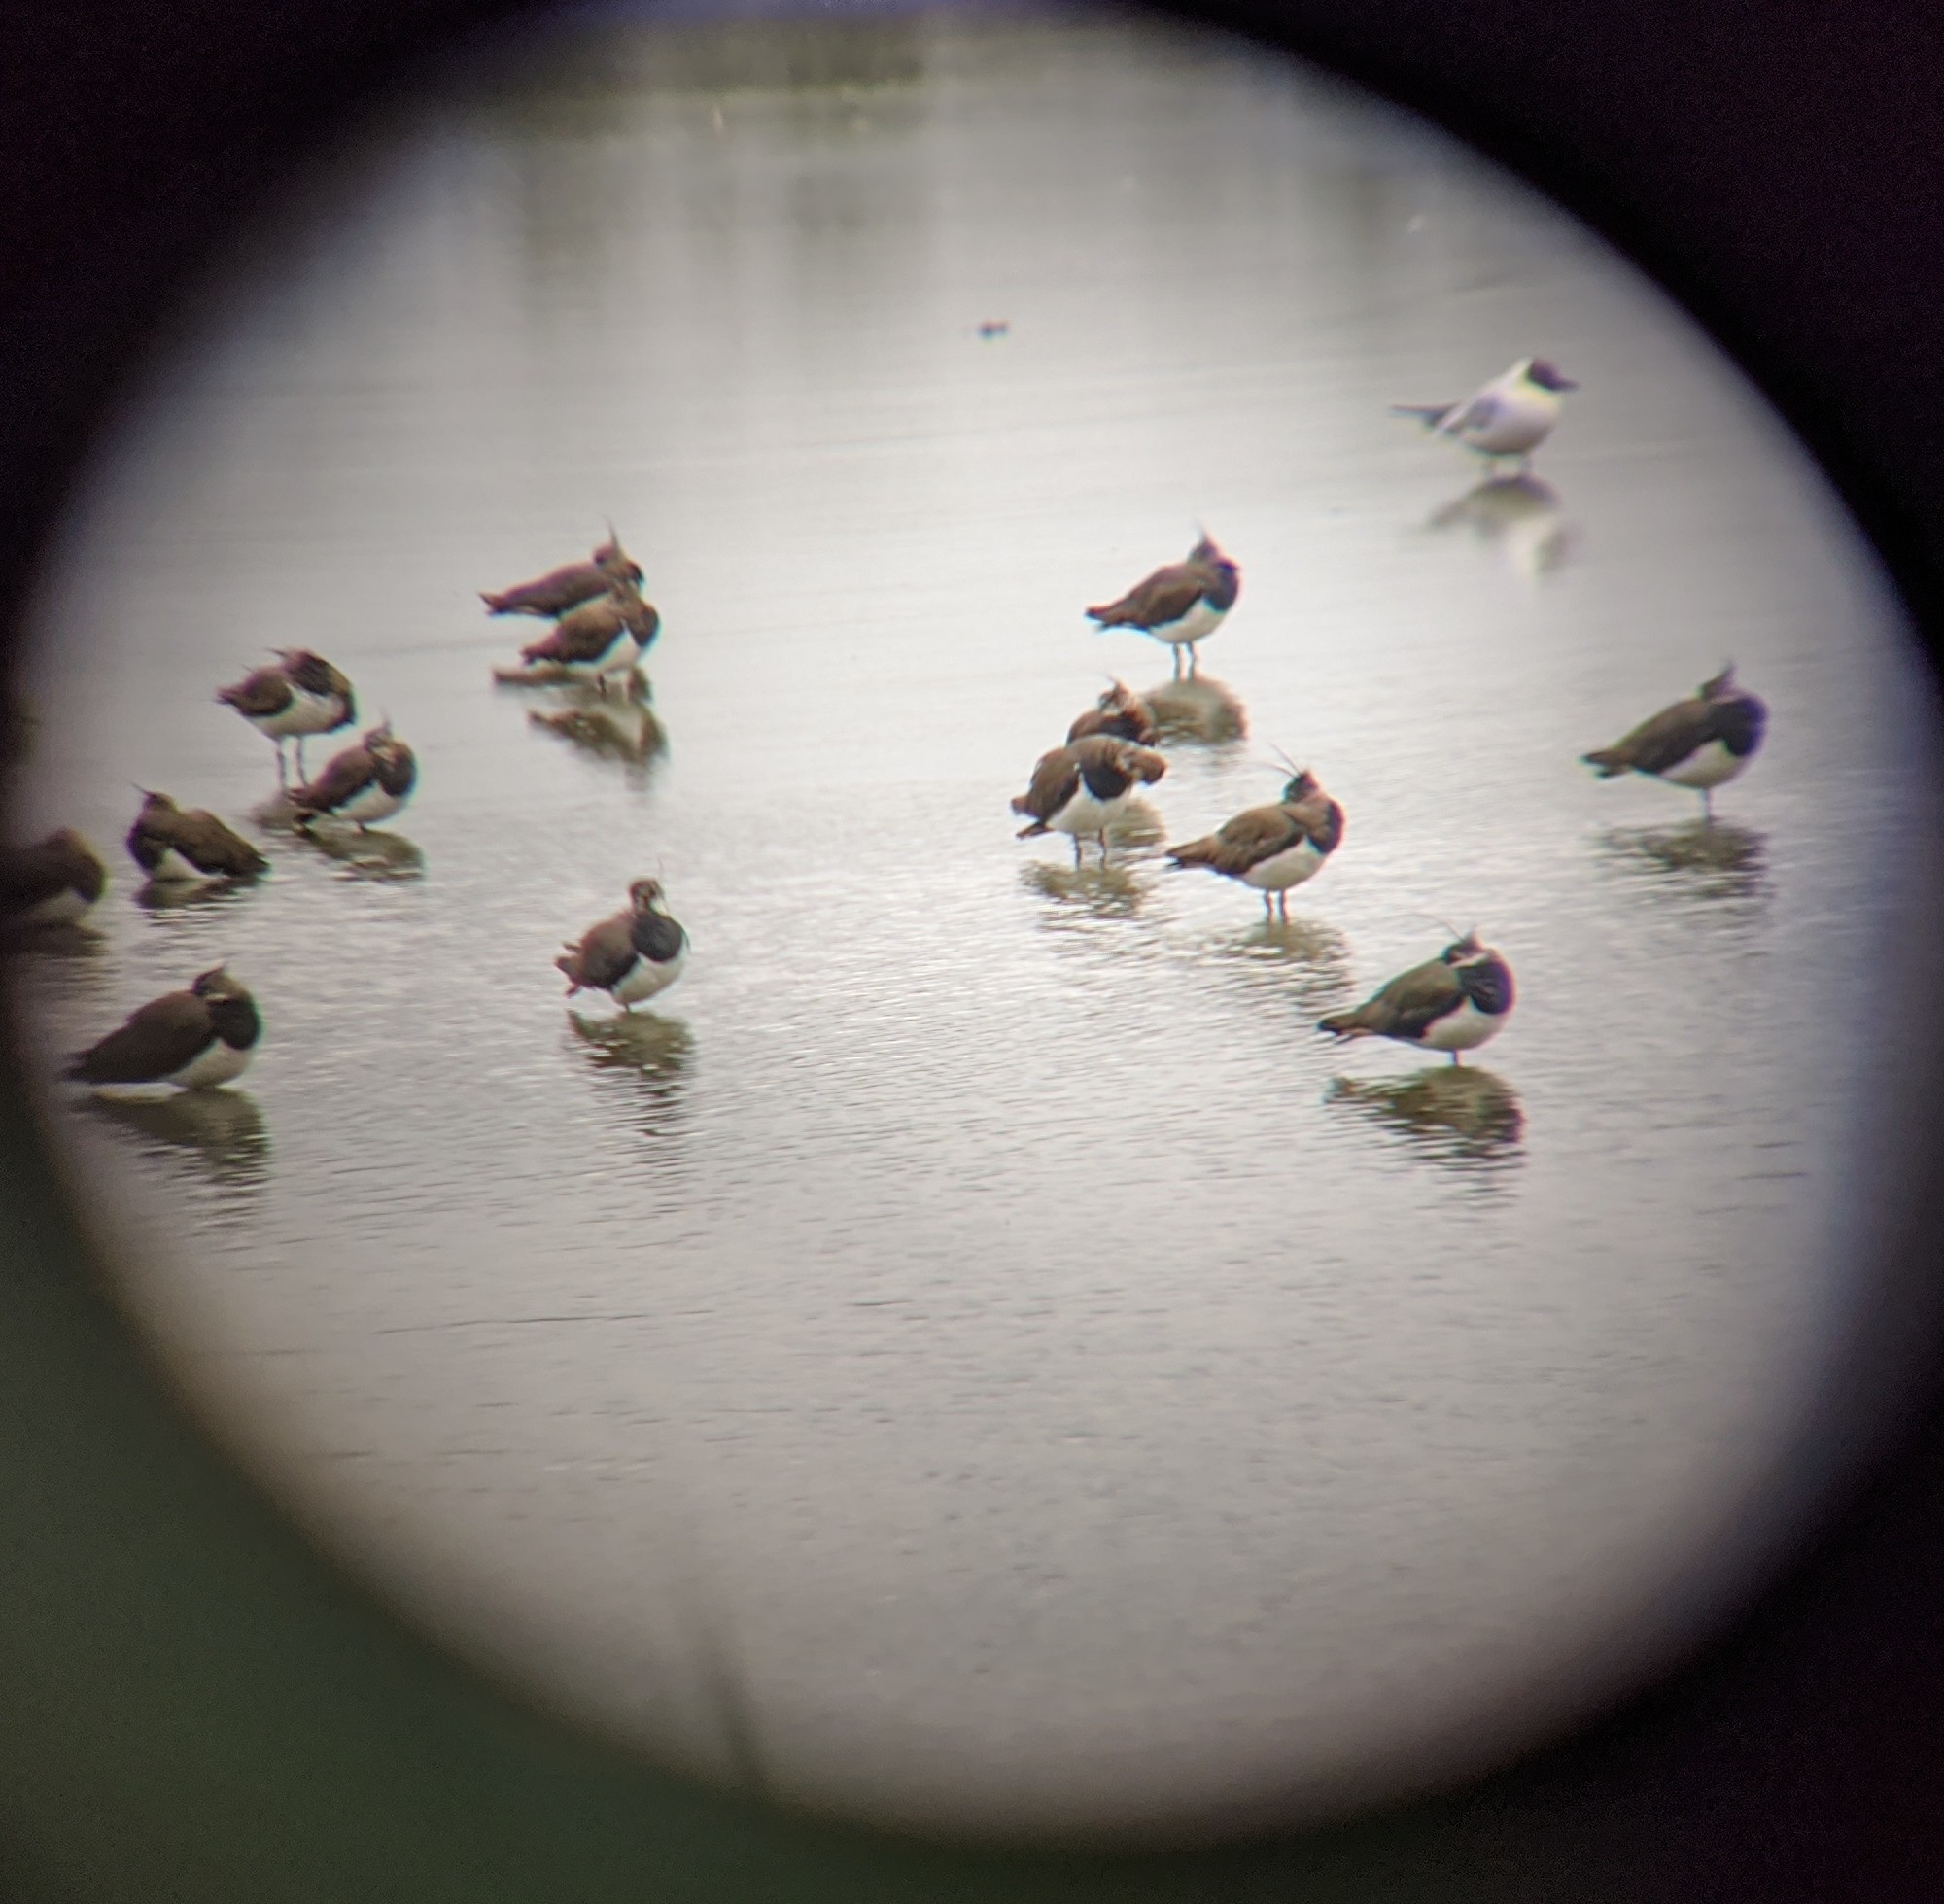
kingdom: Animalia
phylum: Chordata
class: Aves
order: Charadriiformes
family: Charadriidae
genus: Vanellus
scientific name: Vanellus vanellus
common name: Northern lapwing
